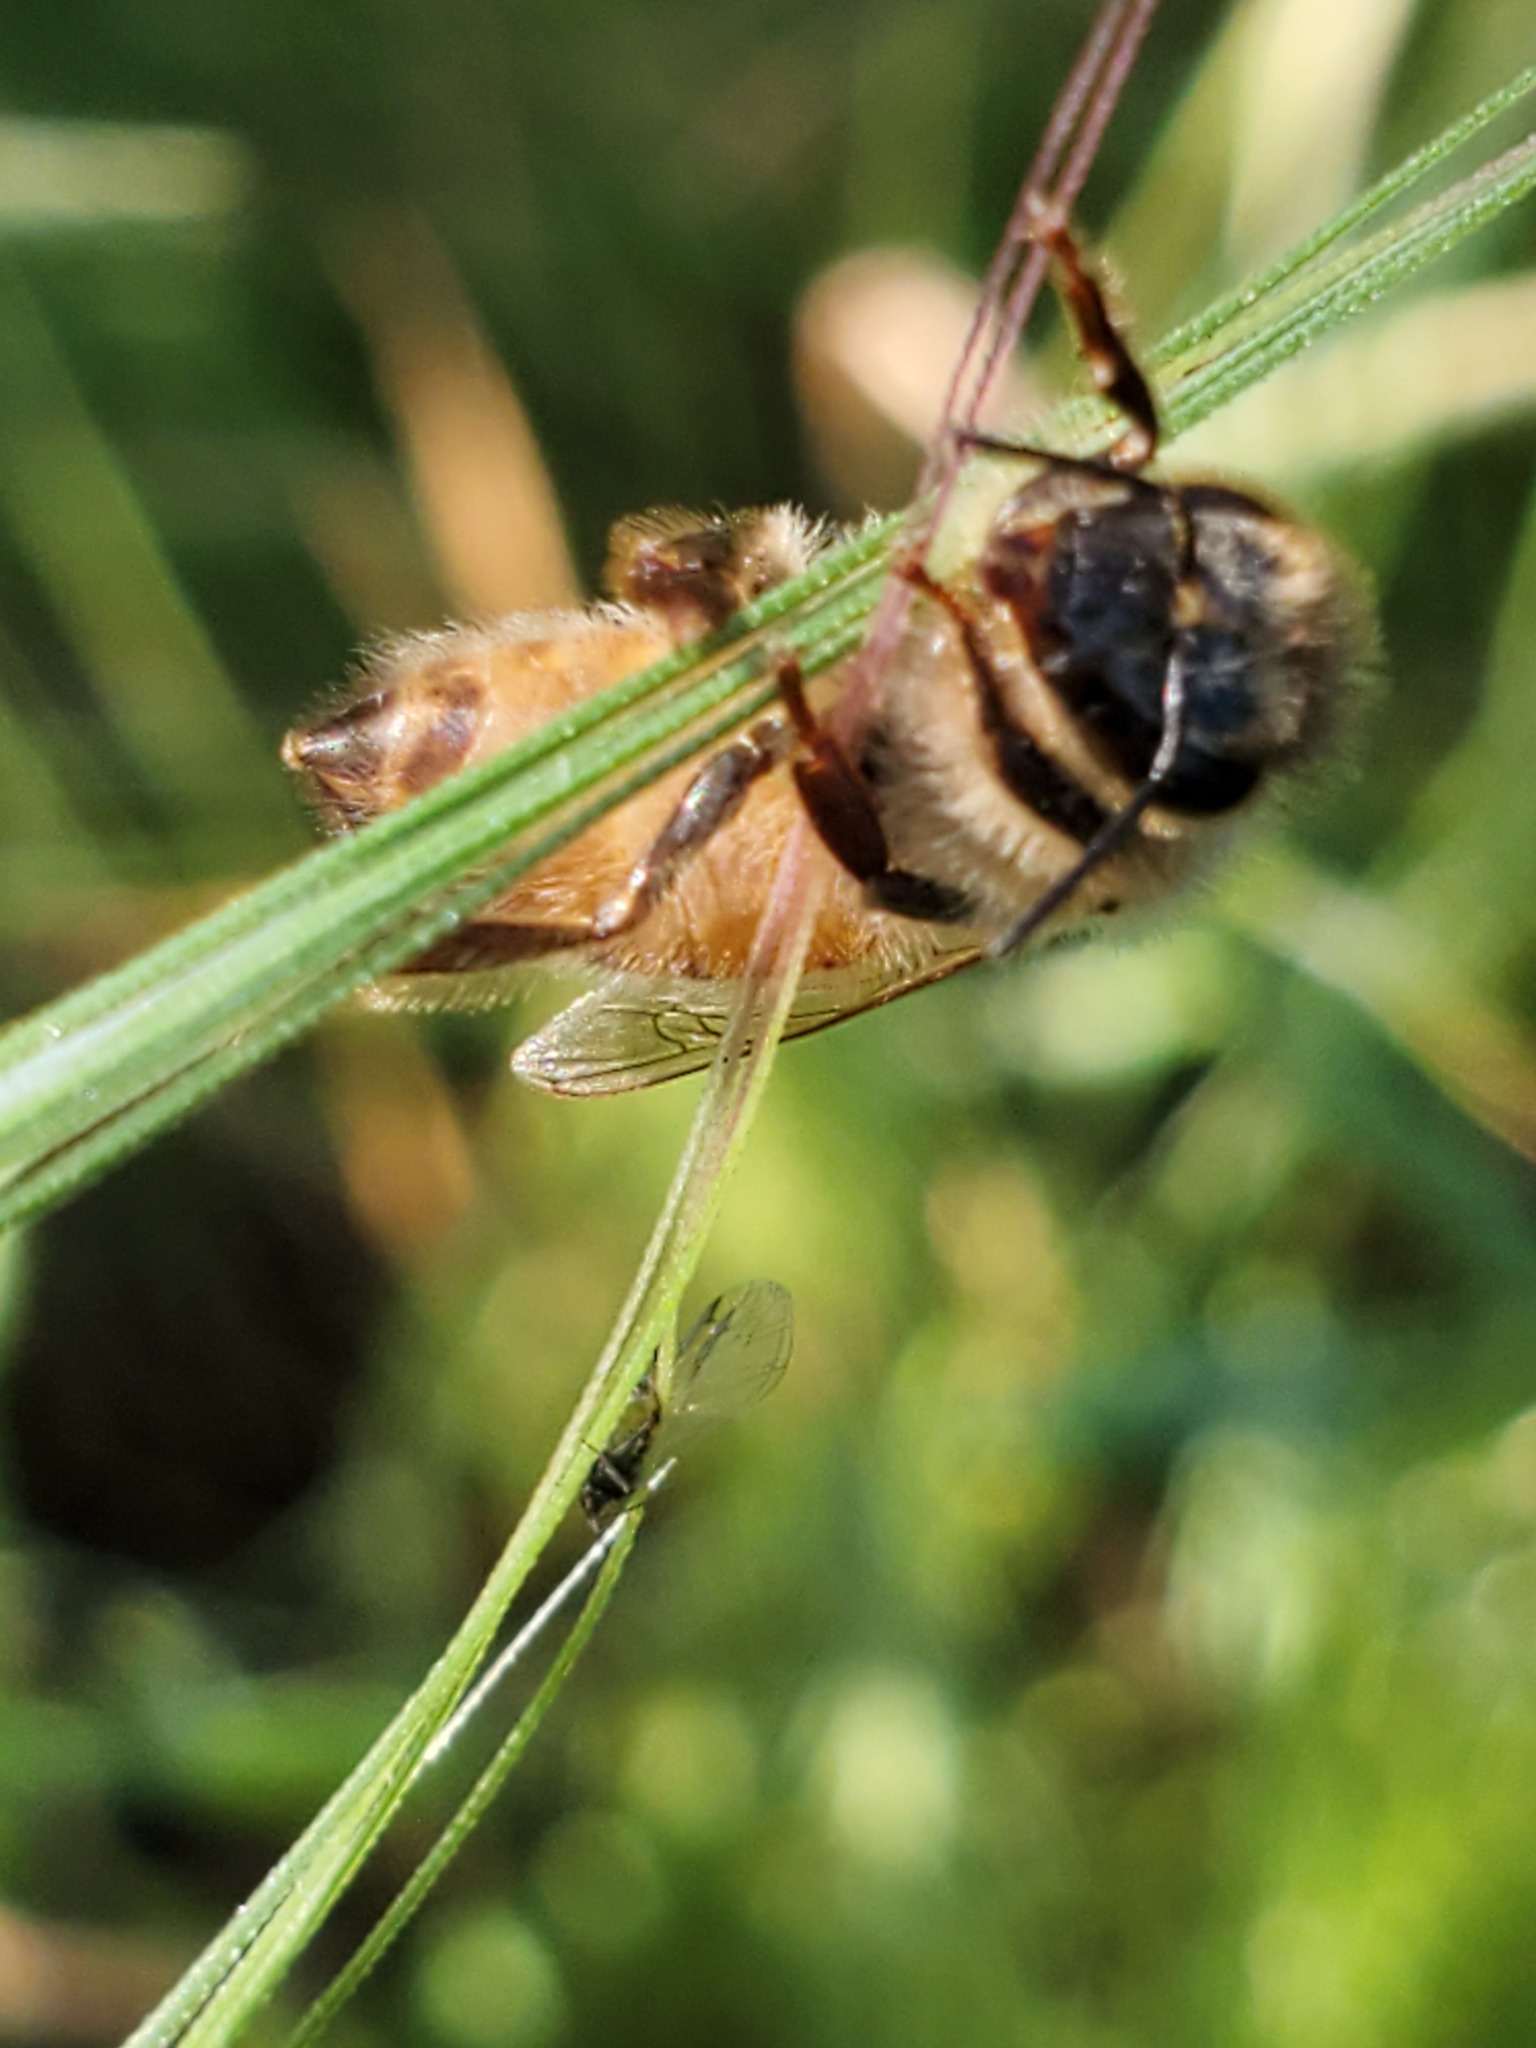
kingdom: Animalia
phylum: Arthropoda
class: Insecta
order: Hymenoptera
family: Apidae
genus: Apis
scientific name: Apis mellifera
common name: Honey bee
